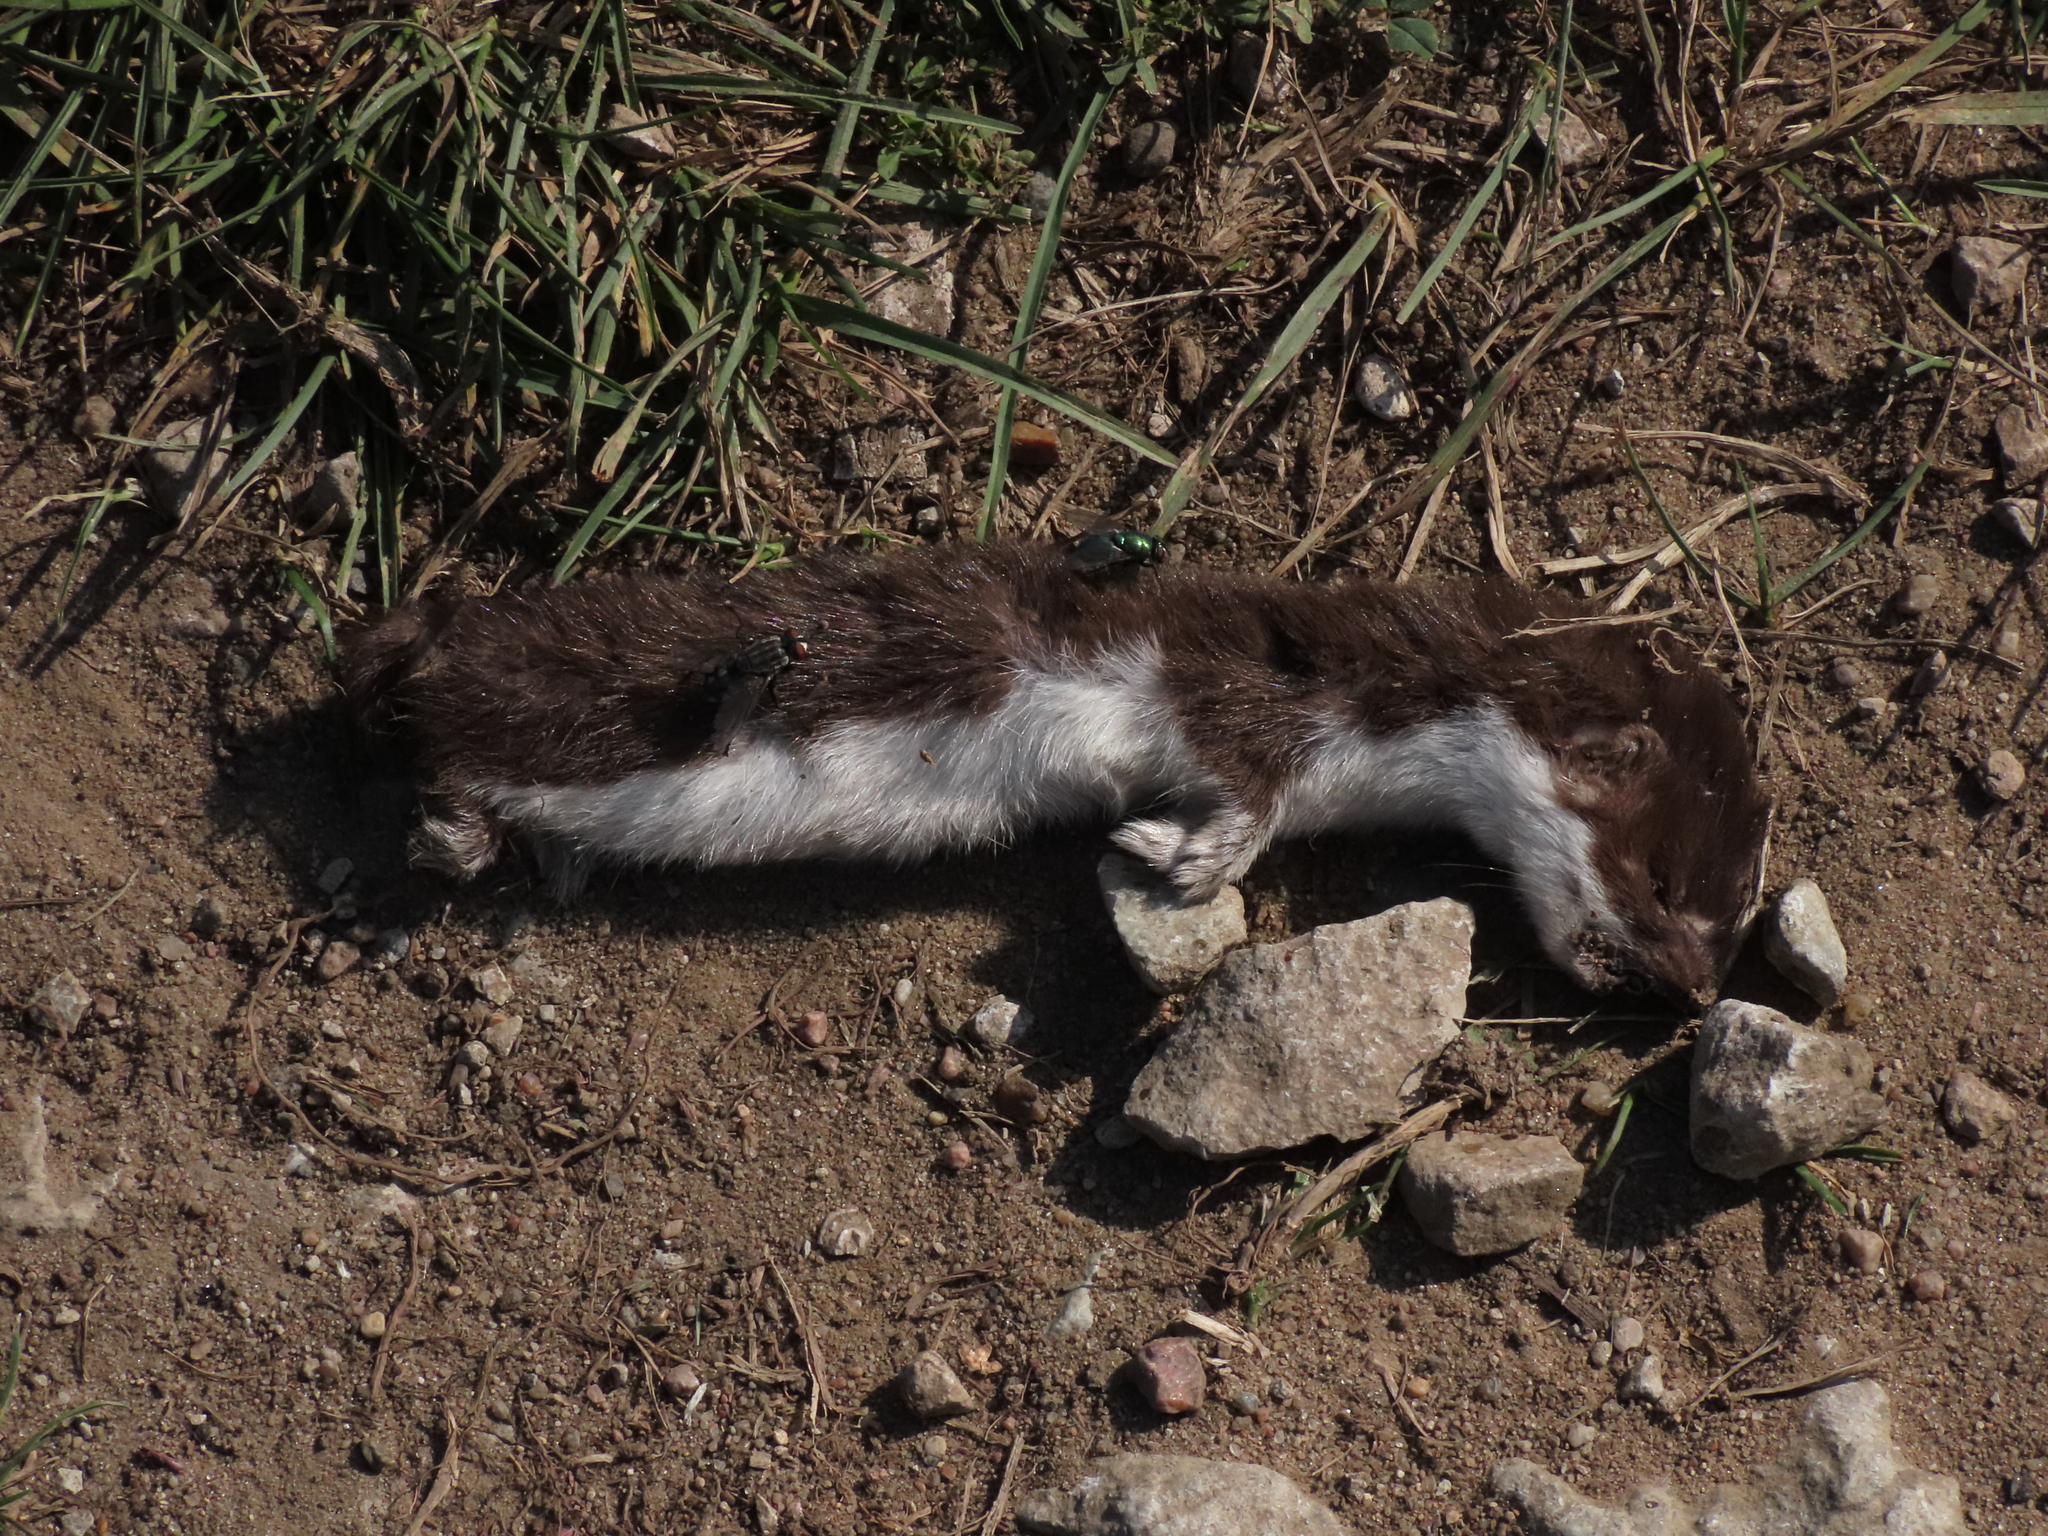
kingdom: Animalia
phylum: Chordata
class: Mammalia
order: Carnivora
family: Mustelidae
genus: Mustela
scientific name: Mustela nivalis
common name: Least weasel
